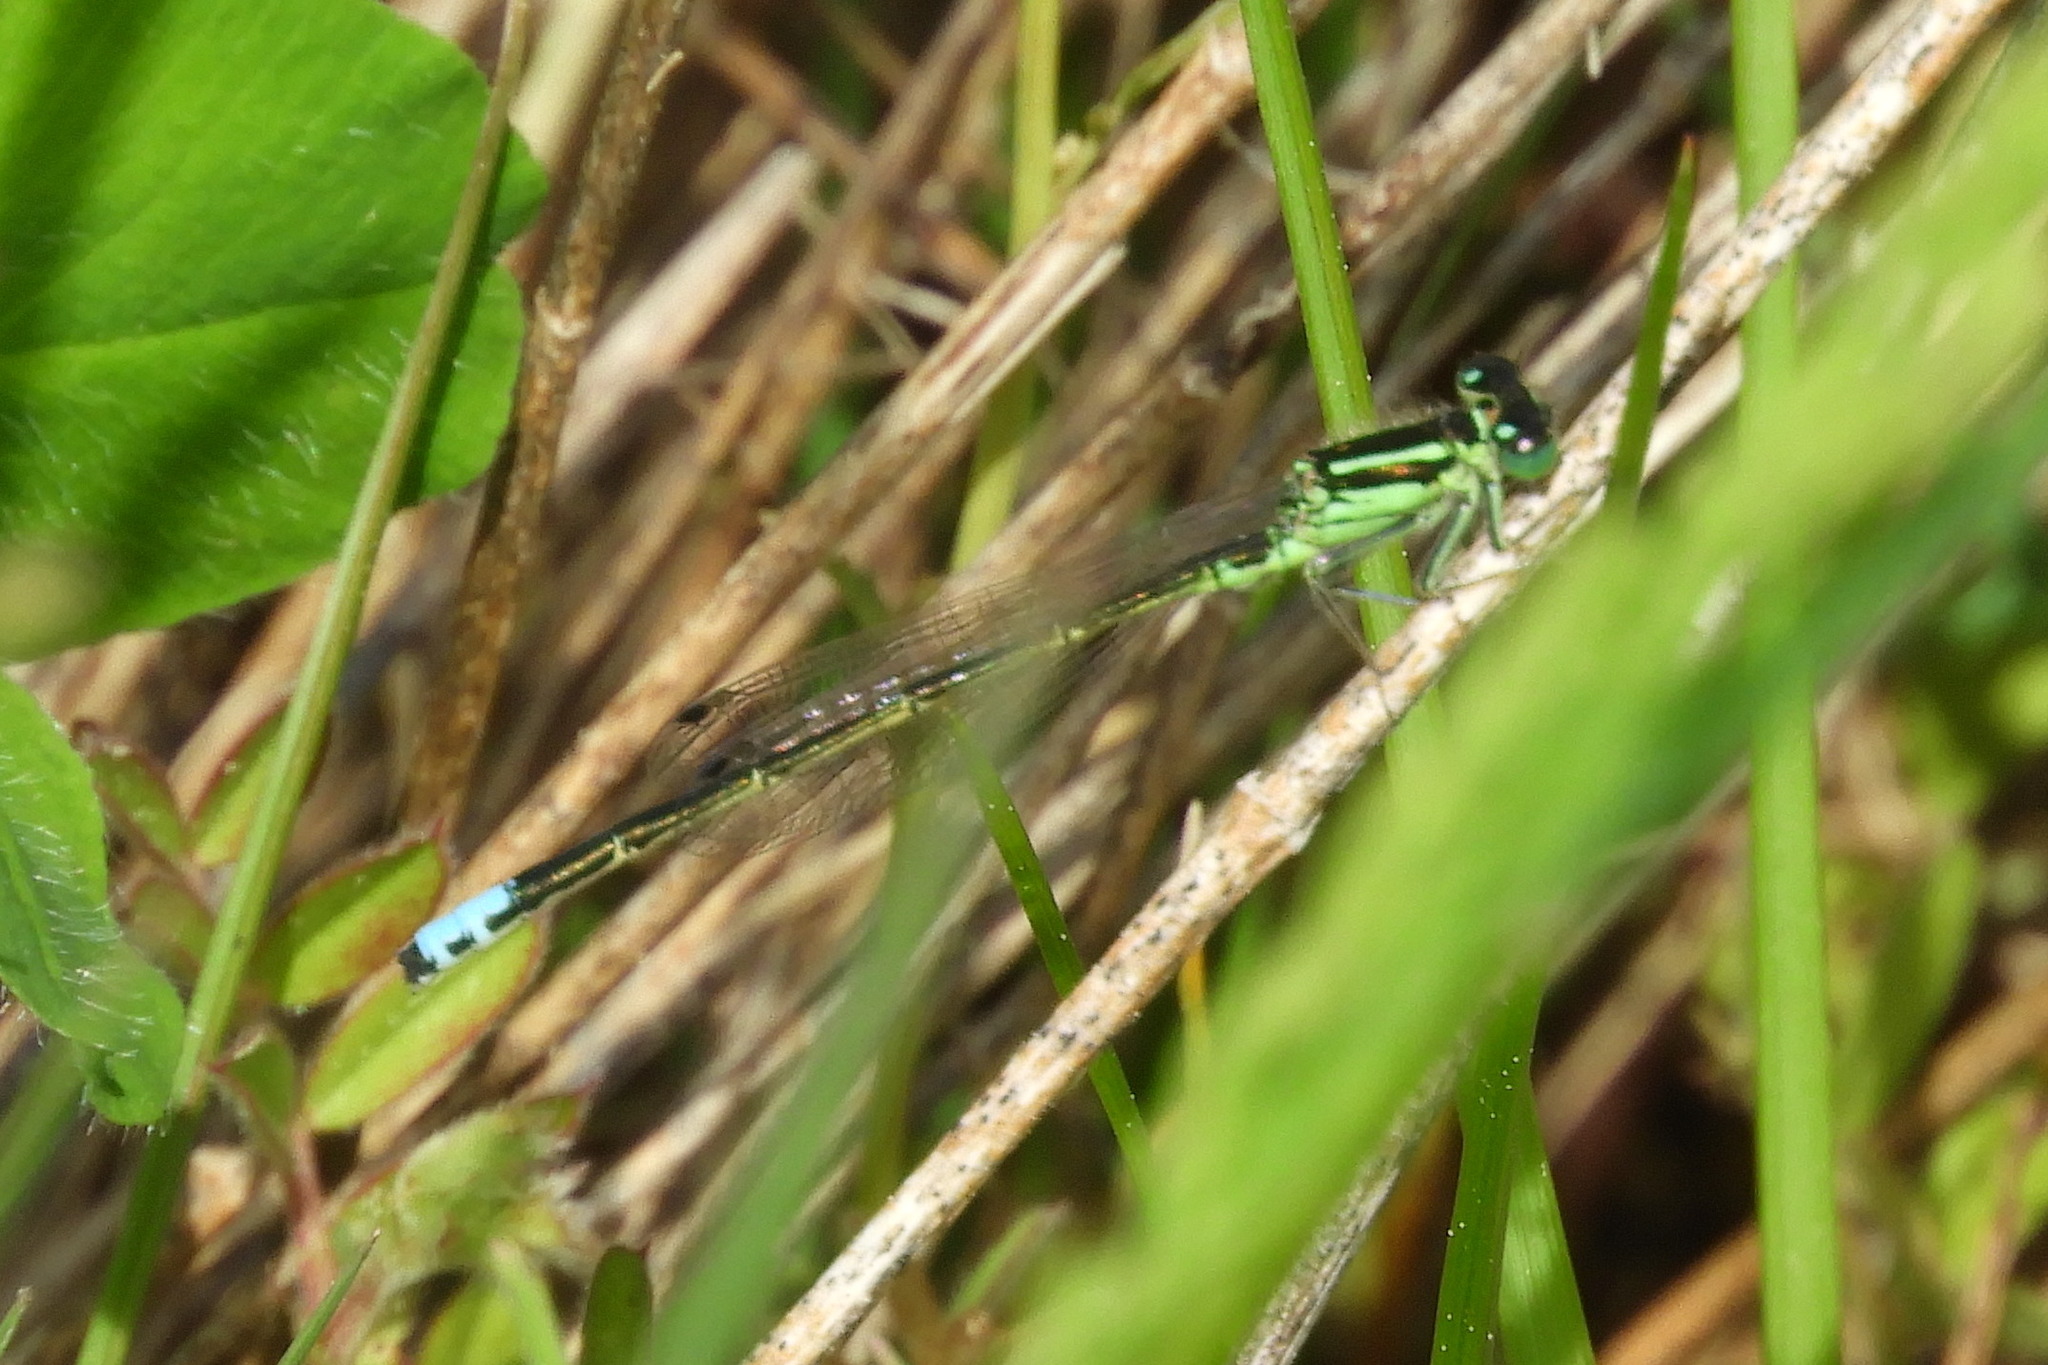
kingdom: Animalia
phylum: Arthropoda
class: Insecta
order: Odonata
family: Coenagrionidae
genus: Ischnura
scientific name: Ischnura verticalis
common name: Eastern forktail
